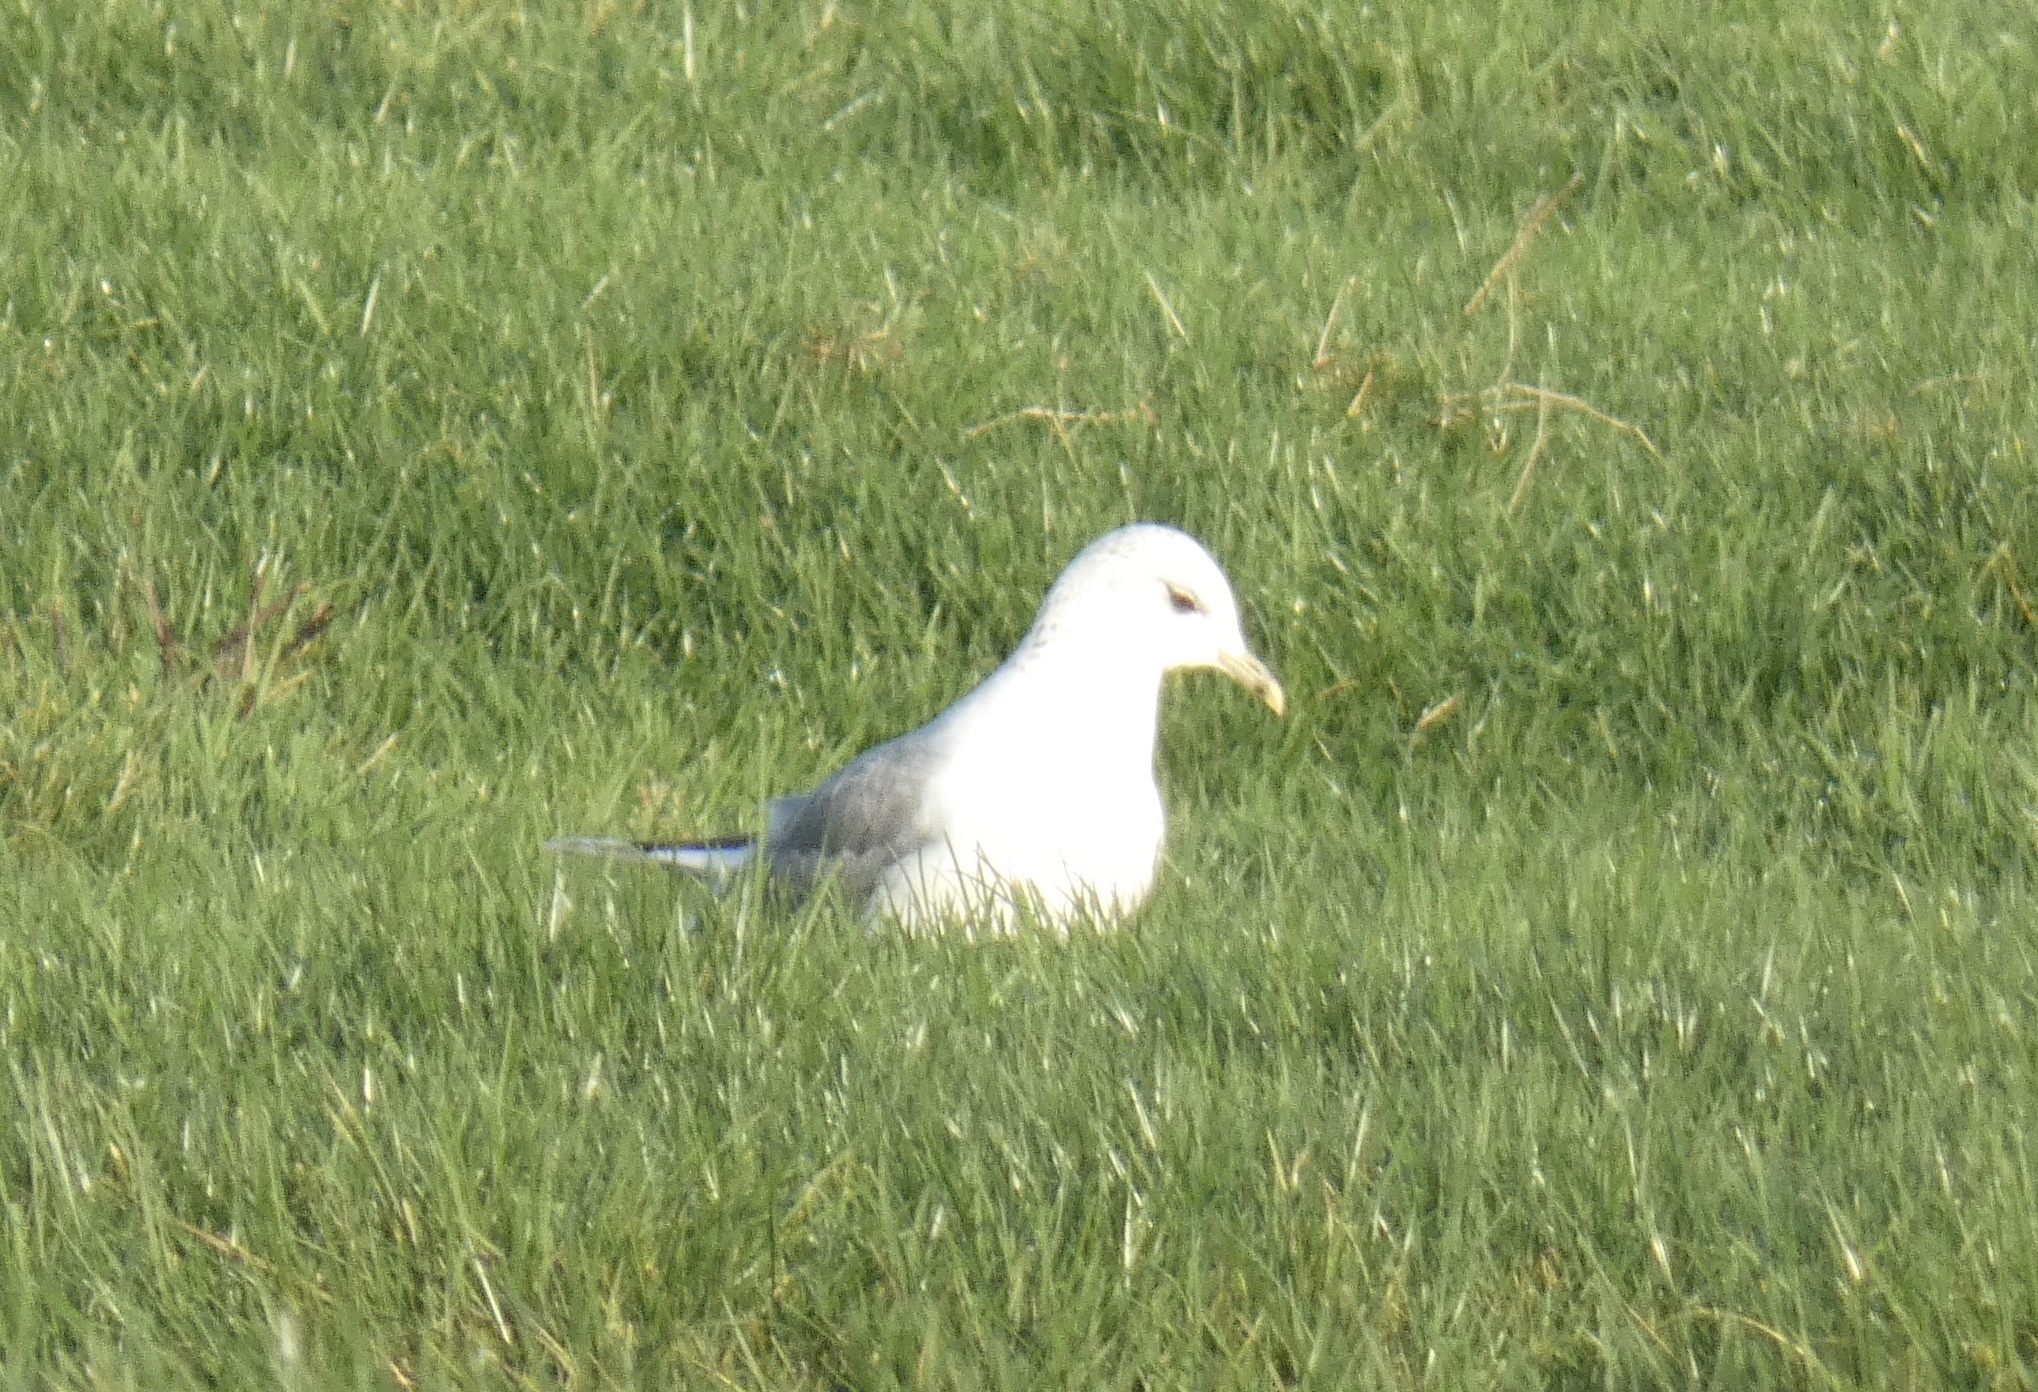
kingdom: Animalia
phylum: Chordata
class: Aves
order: Charadriiformes
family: Laridae
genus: Larus
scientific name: Larus canus
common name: Mew gull
